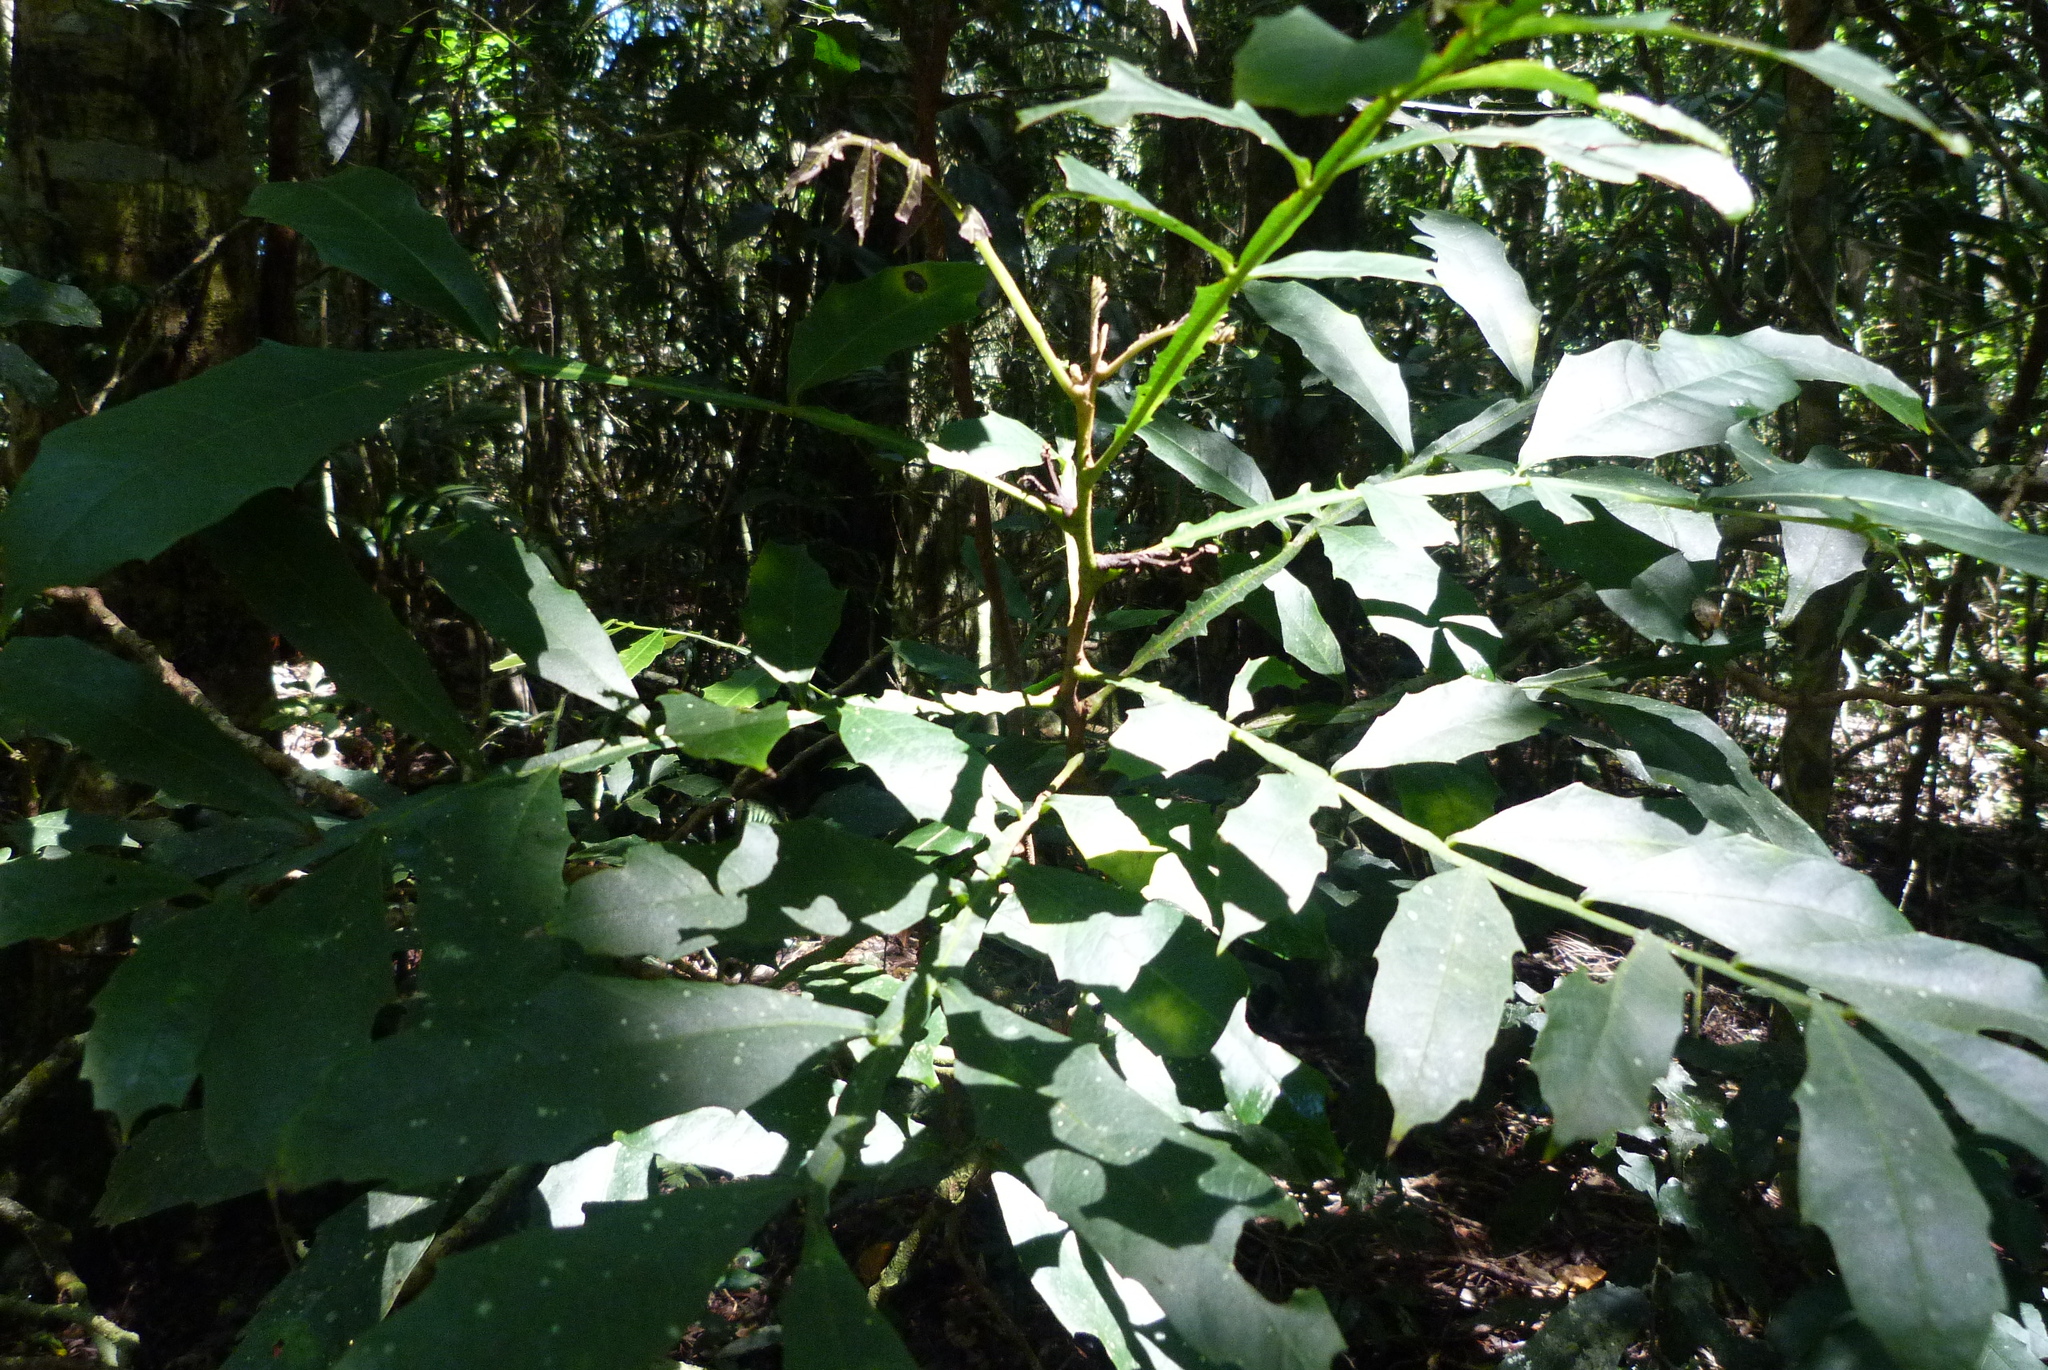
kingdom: Plantae
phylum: Tracheophyta
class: Magnoliopsida
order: Sapindales
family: Sapindaceae
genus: Harpullia
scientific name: Harpullia alata
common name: Wing-leaved tulip
